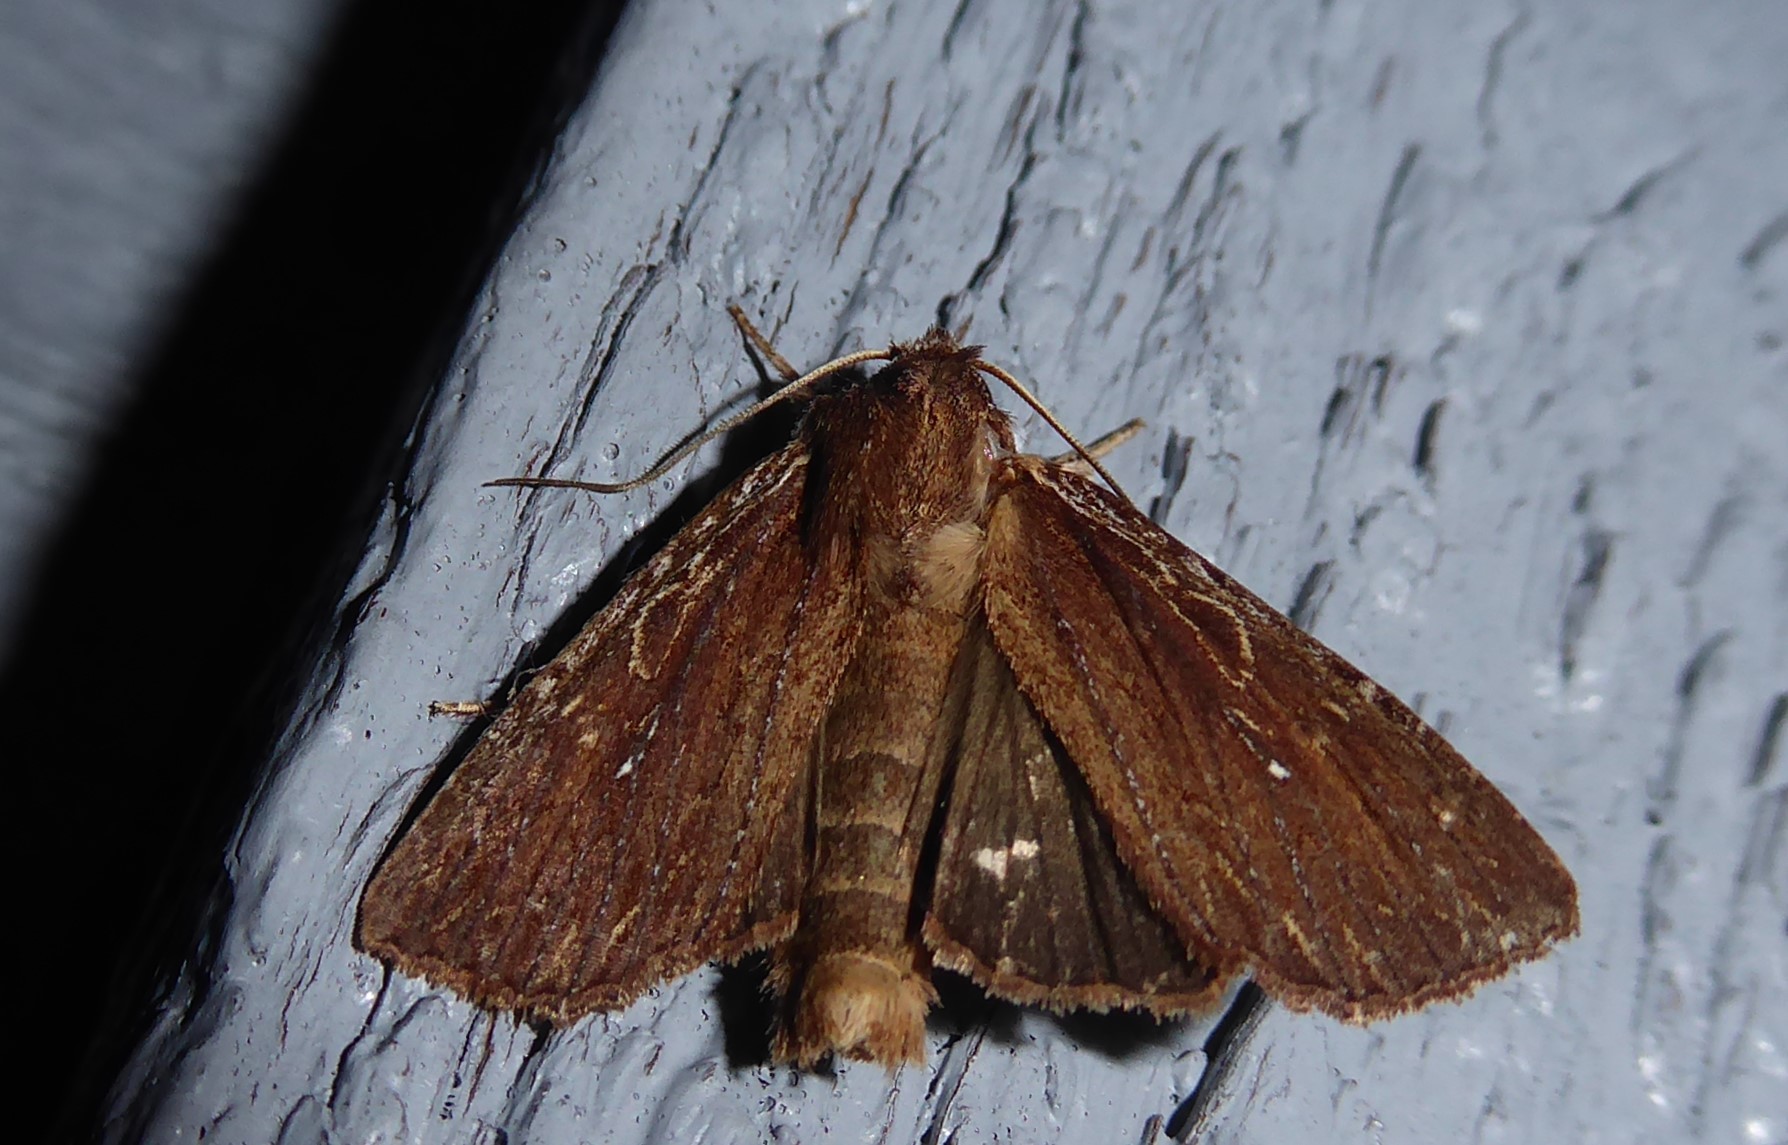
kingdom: Animalia
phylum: Arthropoda
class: Insecta
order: Lepidoptera
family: Noctuidae
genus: Ichneutica
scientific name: Ichneutica
